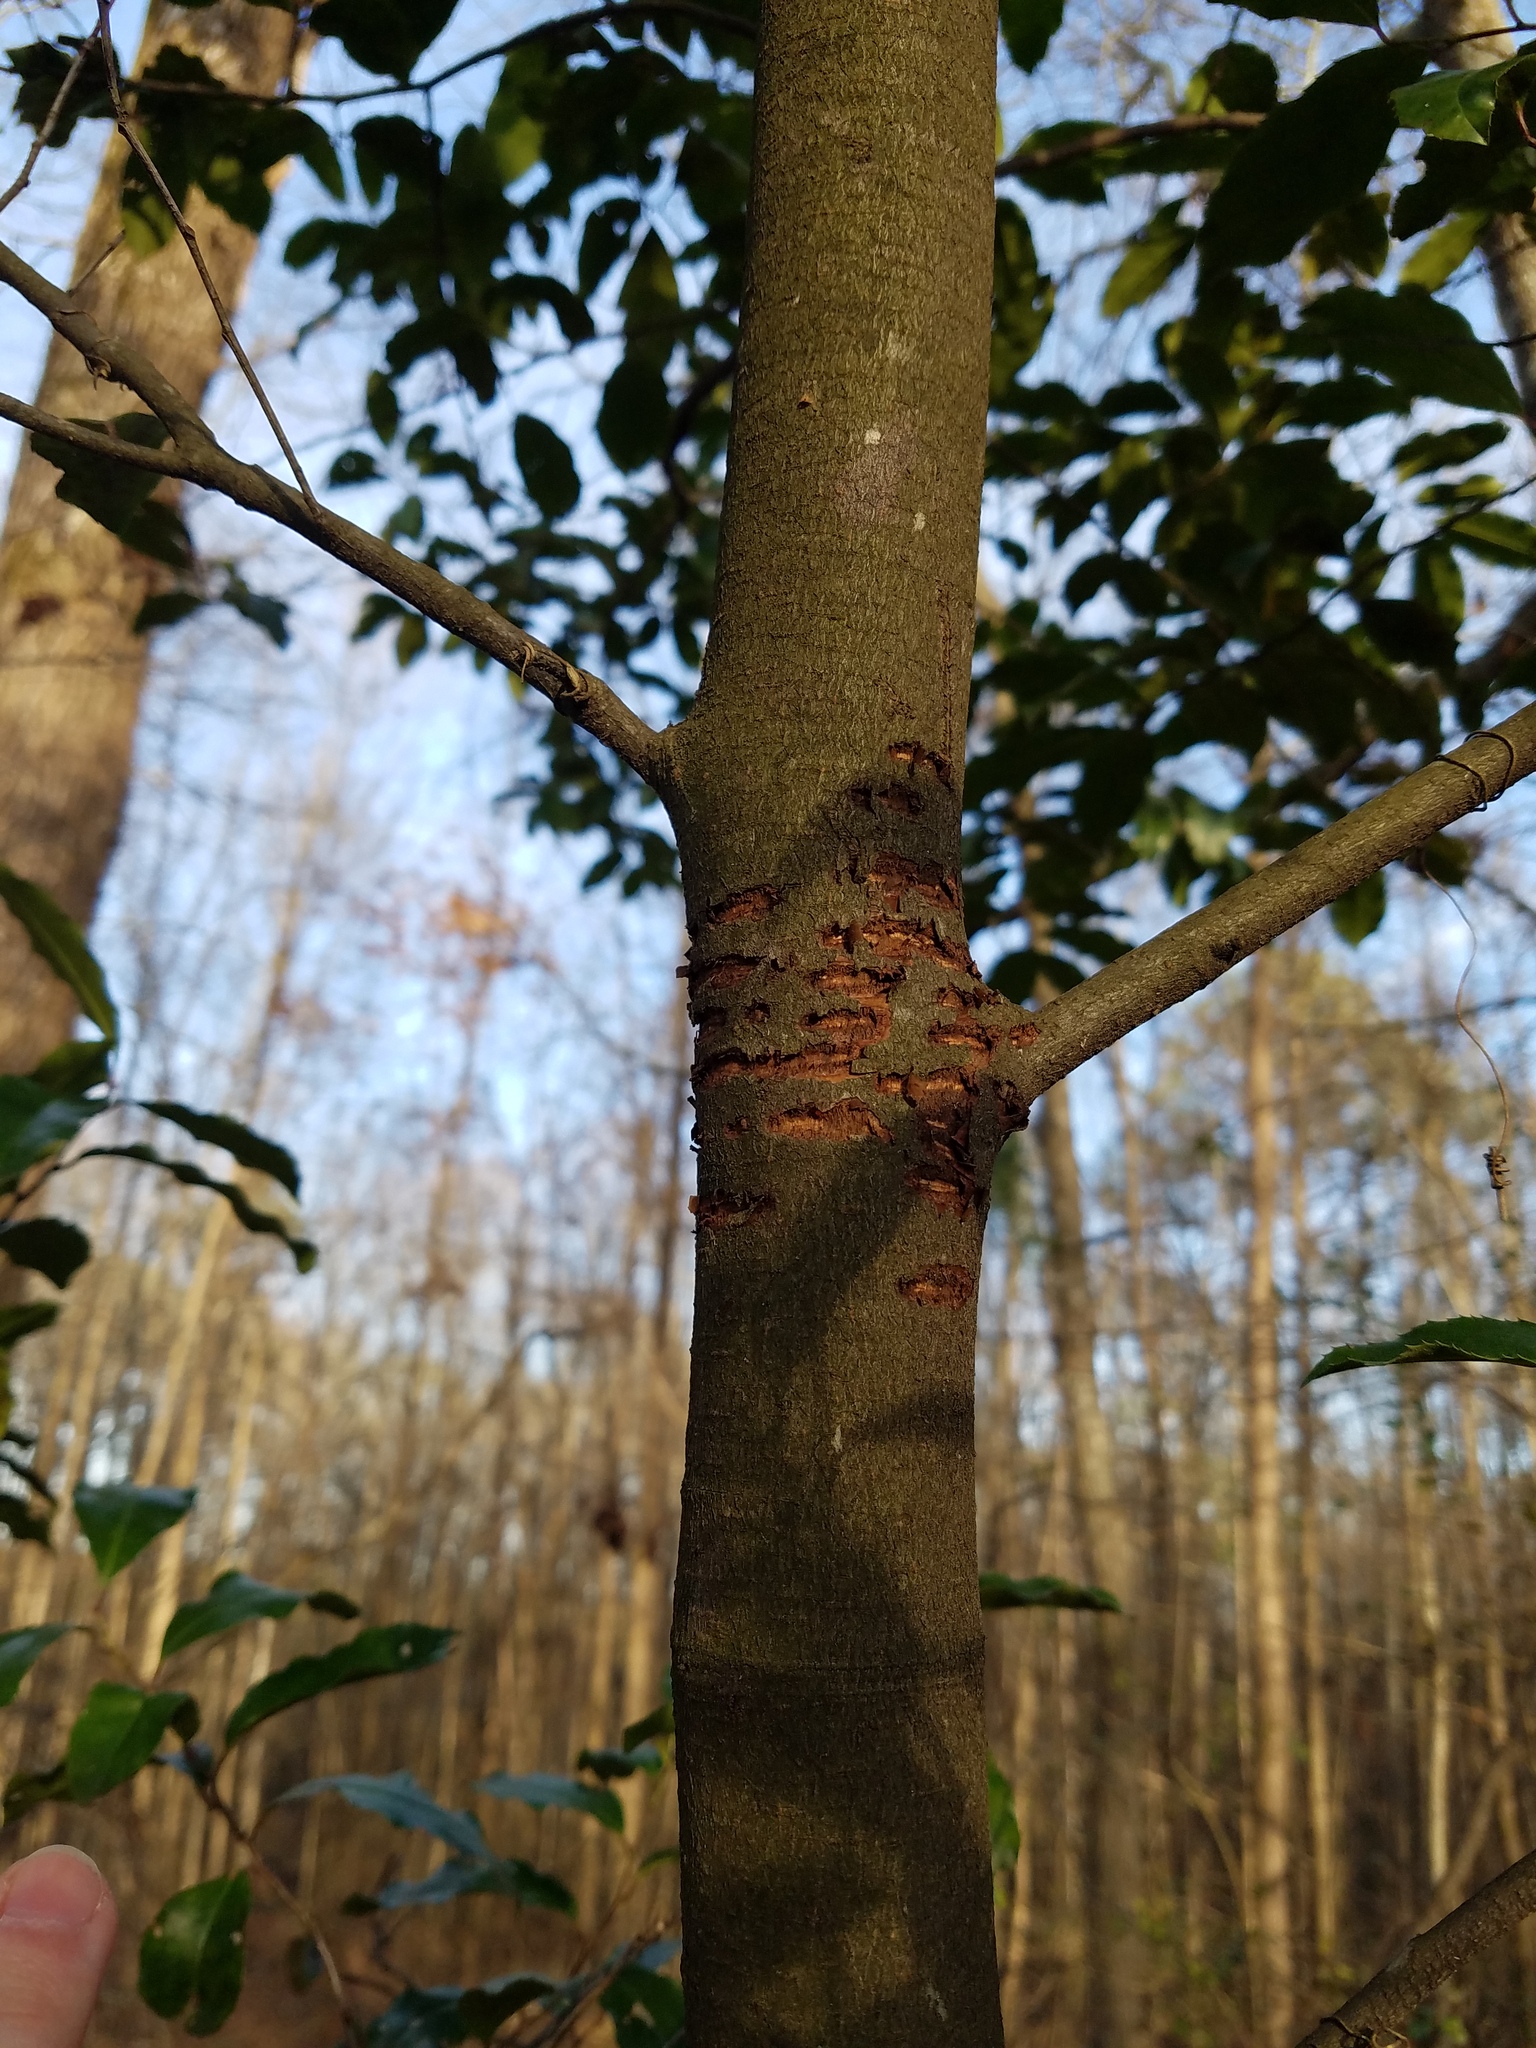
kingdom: Plantae
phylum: Tracheophyta
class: Magnoliopsida
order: Rosales
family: Rosaceae
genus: Prunus
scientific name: Prunus caroliniana
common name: Carolina laurel cherry
